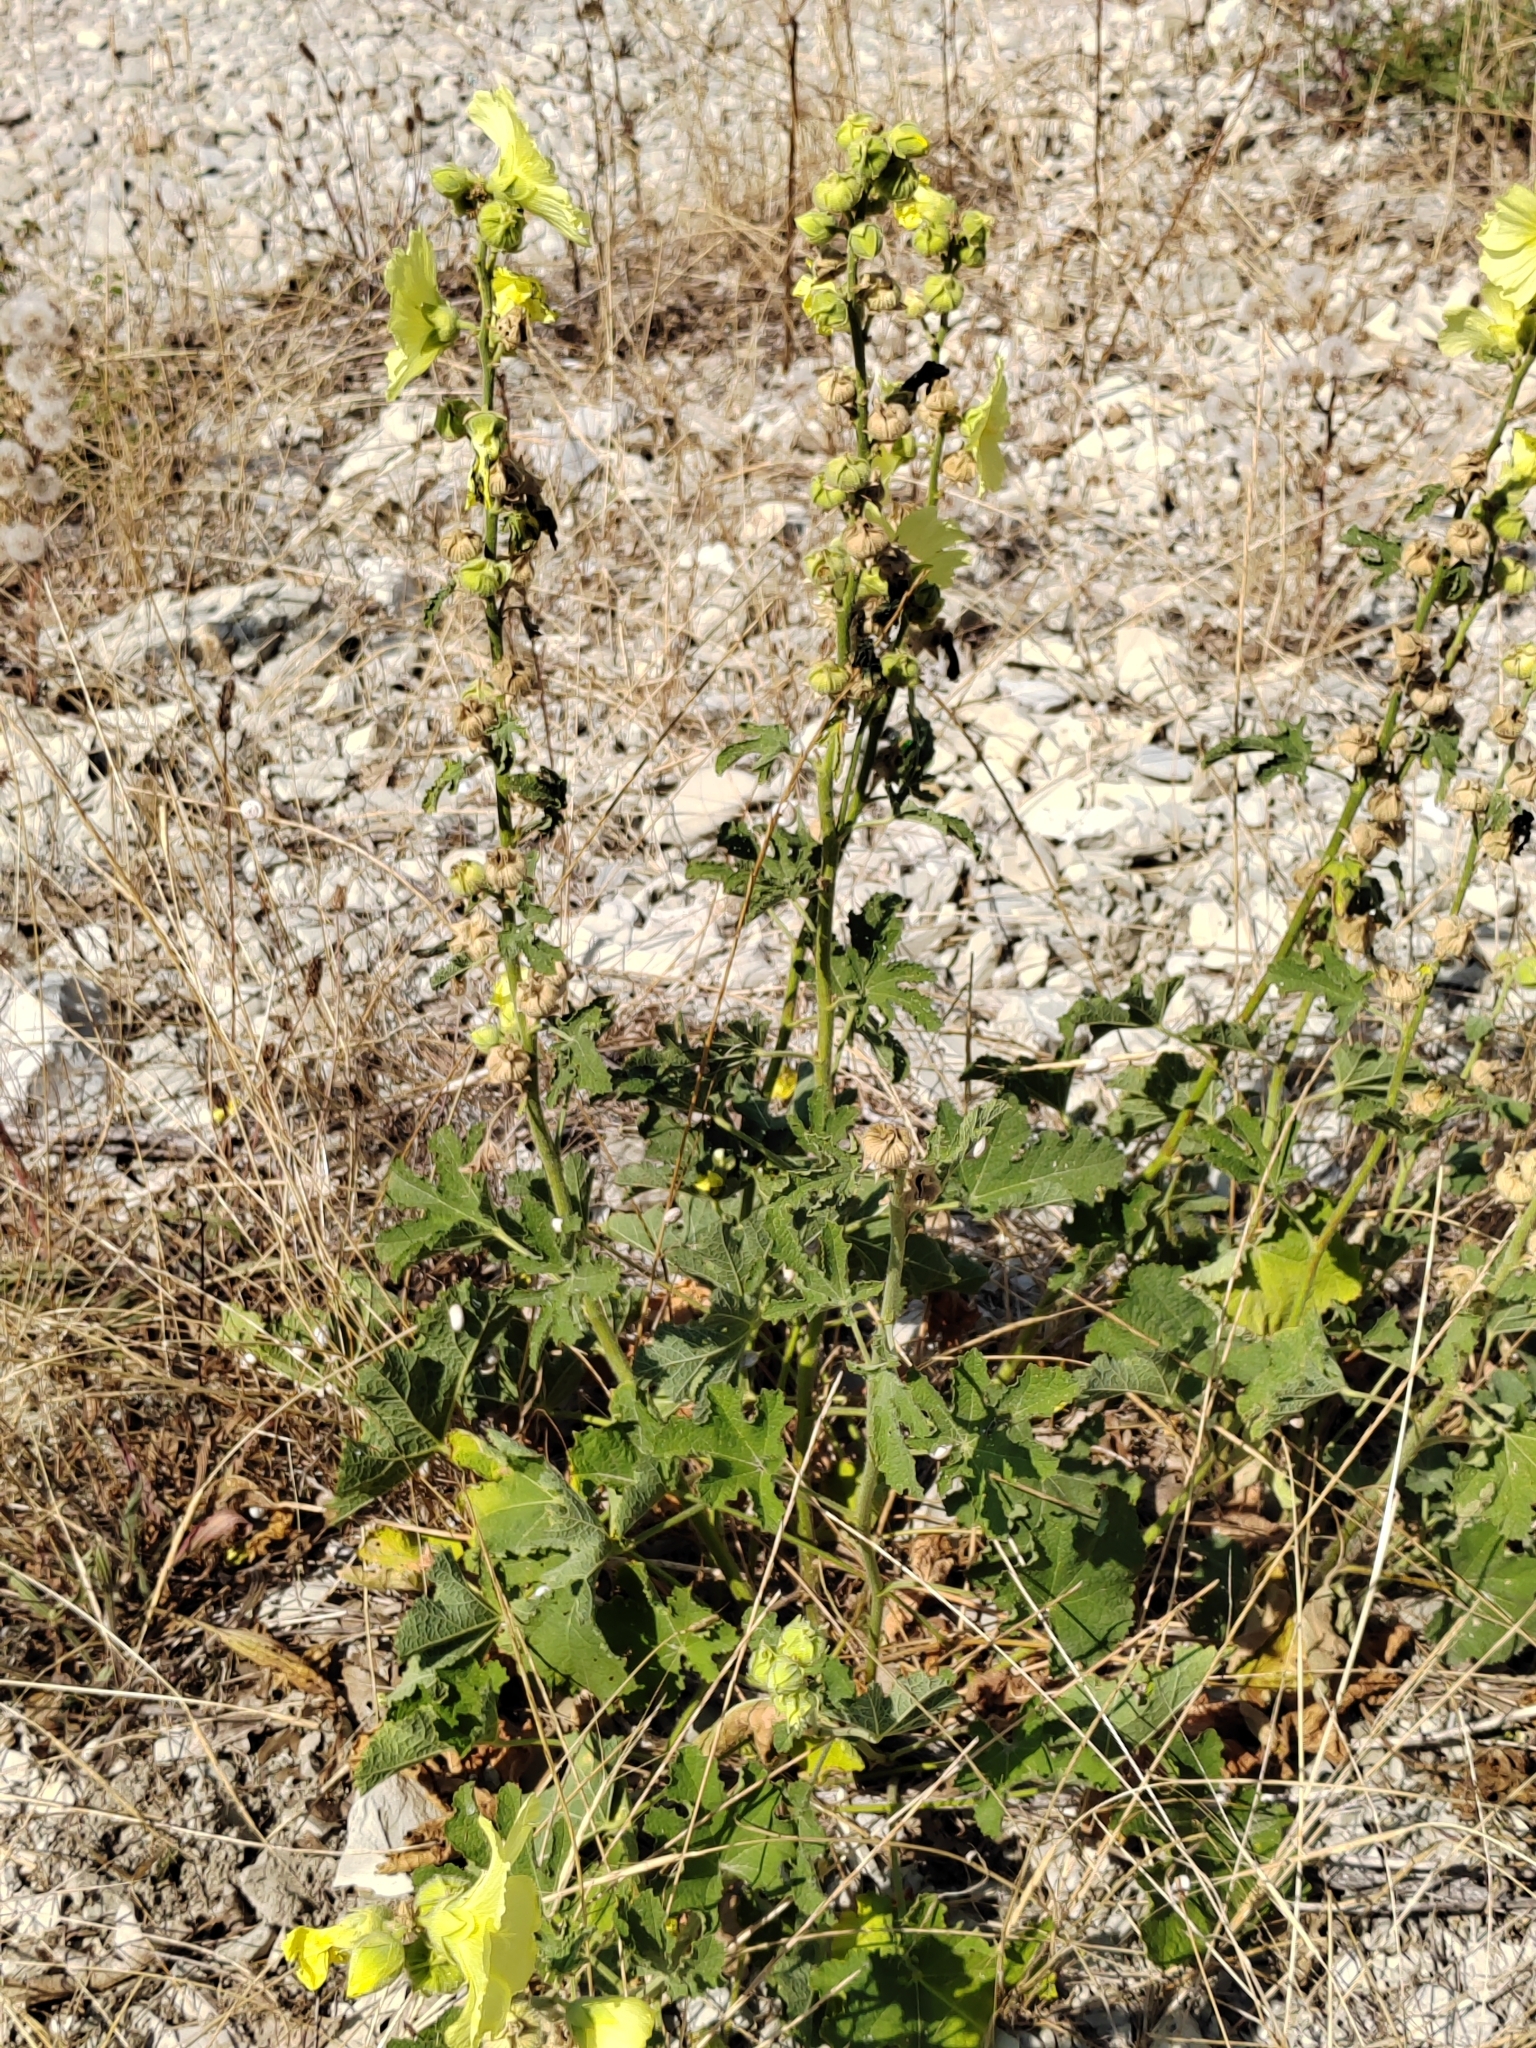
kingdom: Plantae
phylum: Tracheophyta
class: Magnoliopsida
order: Malvales
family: Malvaceae
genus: Alcea
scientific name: Alcea rugosa
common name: Russian hollyhock
